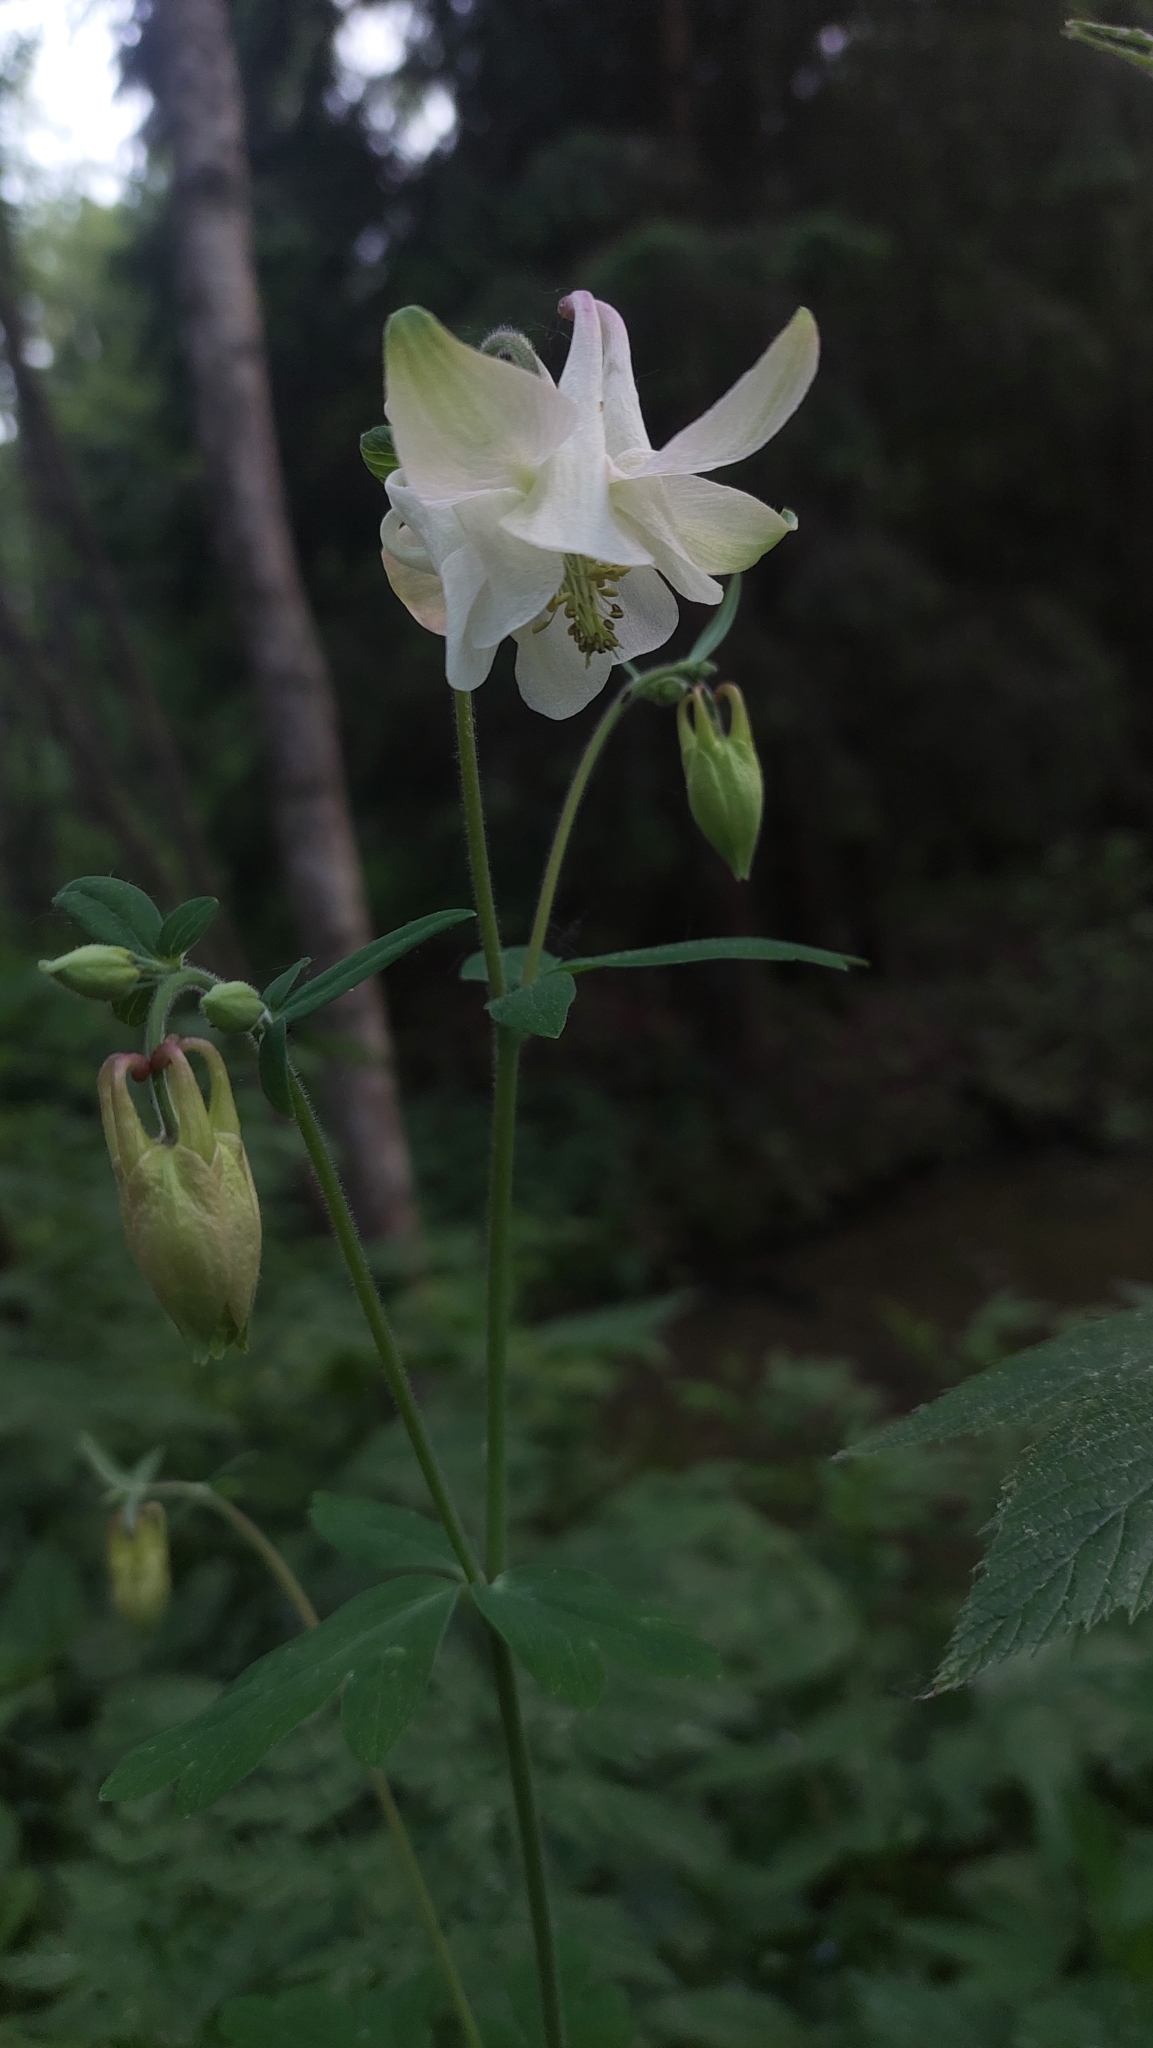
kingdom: Plantae
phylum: Tracheophyta
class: Magnoliopsida
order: Ranunculales
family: Ranunculaceae
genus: Aquilegia
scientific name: Aquilegia vulgaris
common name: Columbine
